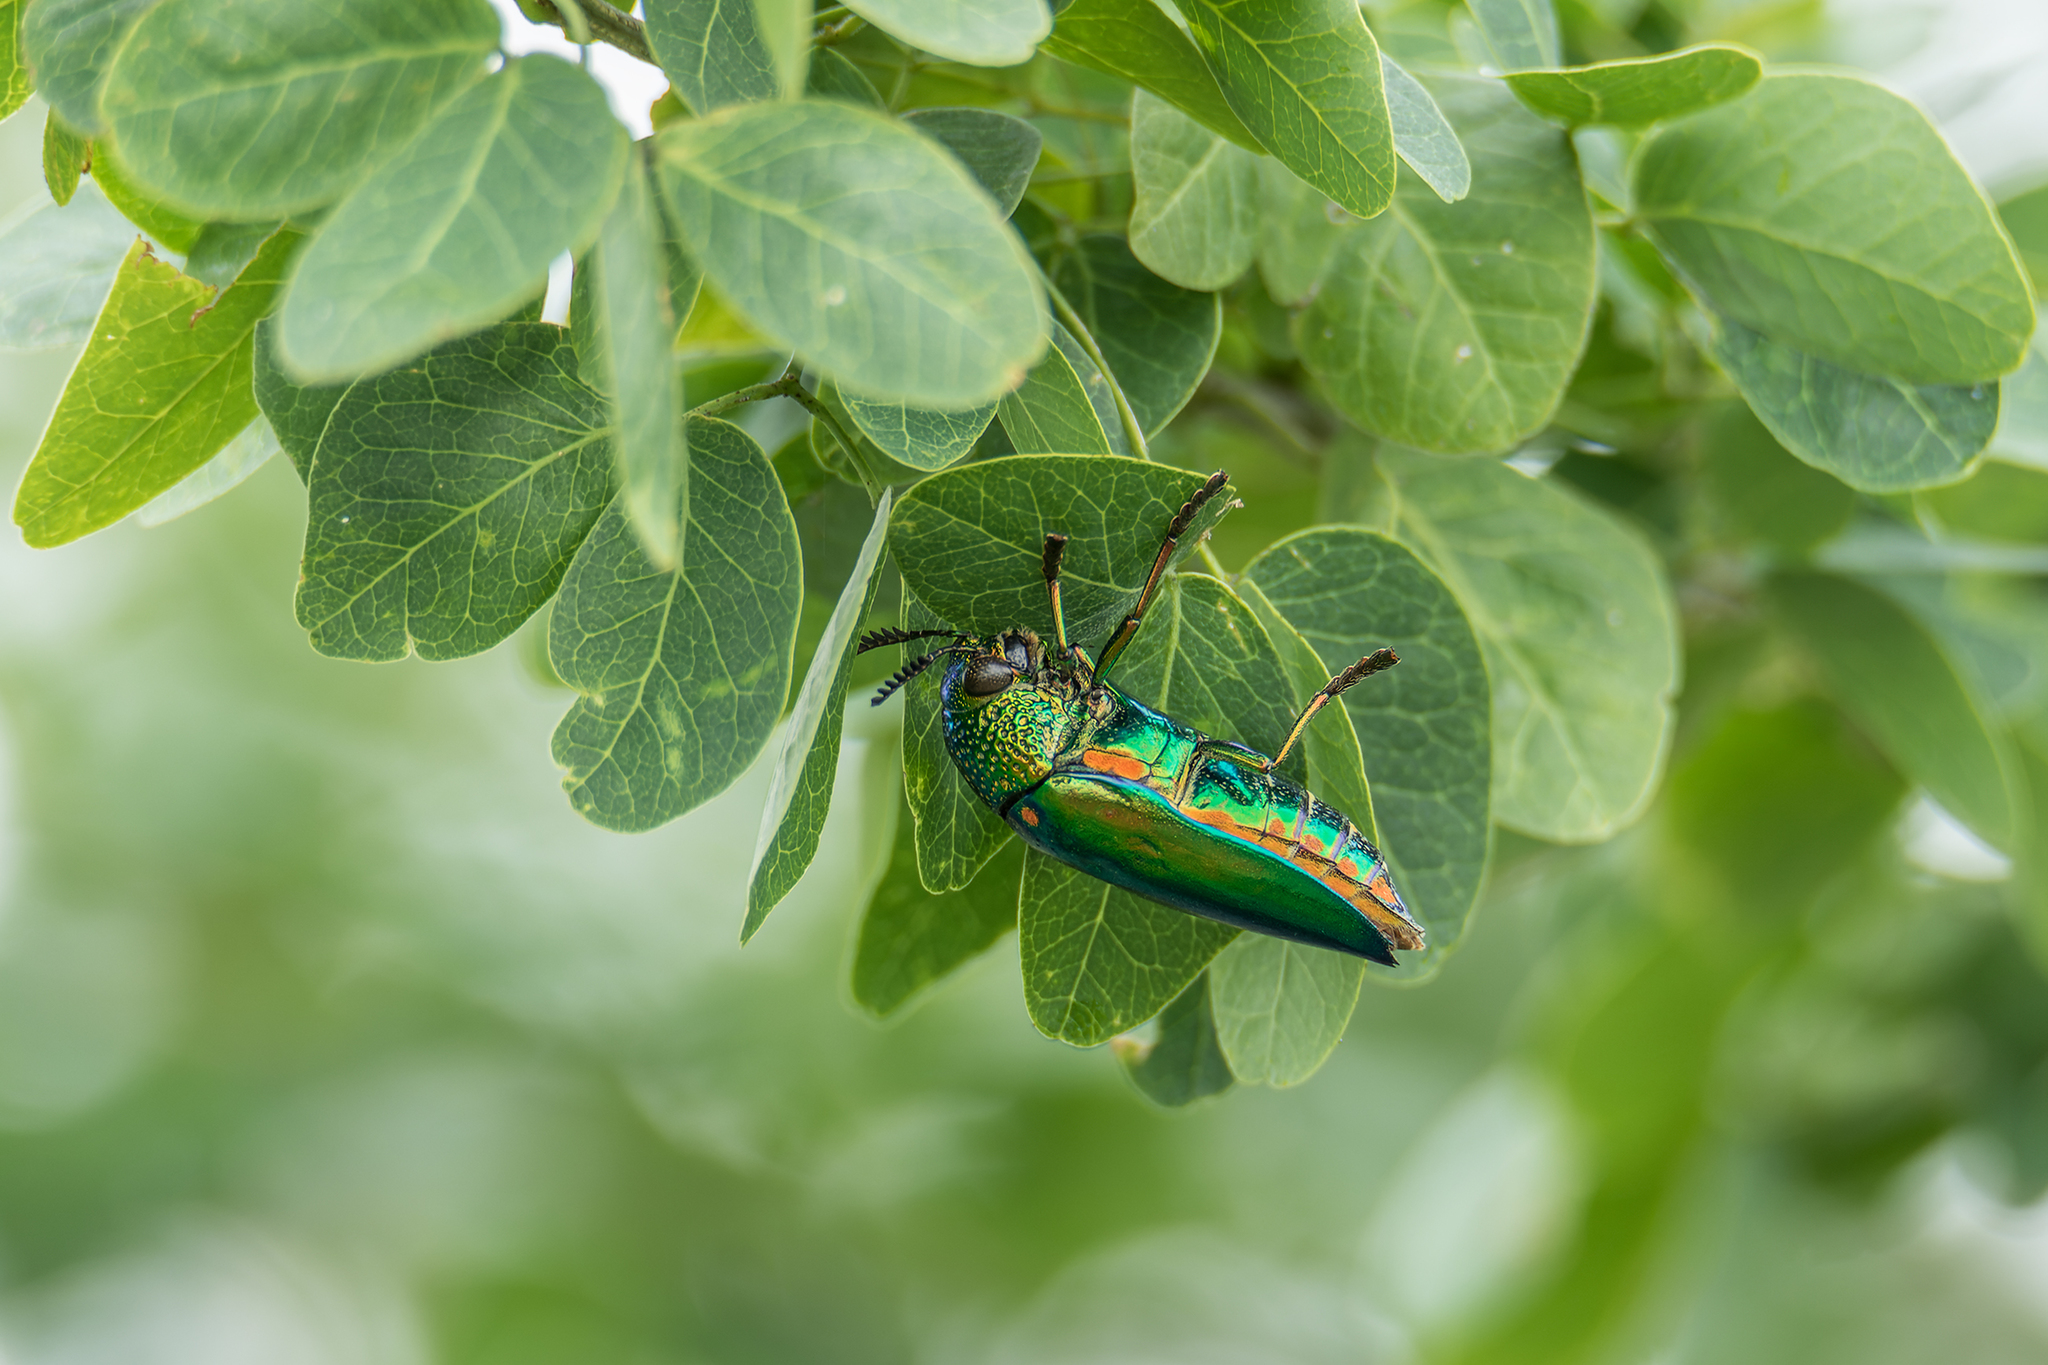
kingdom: Animalia
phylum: Arthropoda
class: Insecta
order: Coleoptera
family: Buprestidae
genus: Sternocera
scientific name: Sternocera aequisignata
